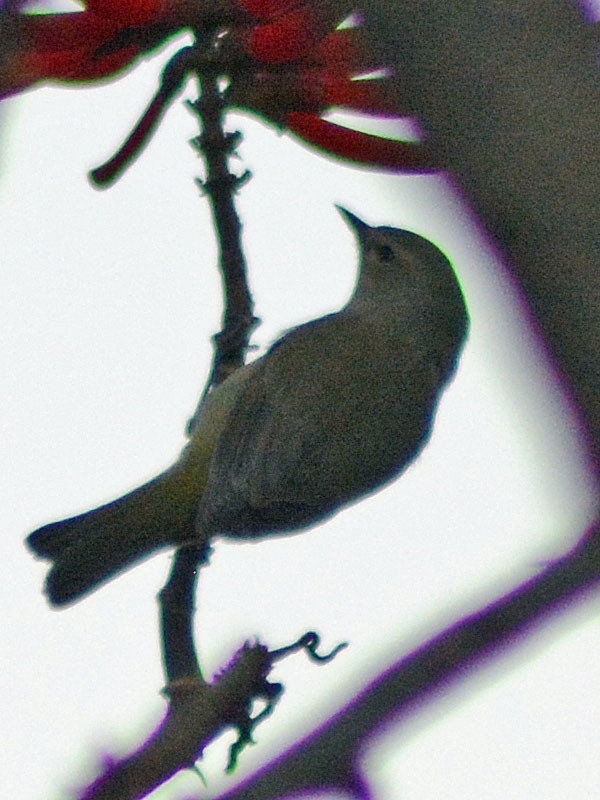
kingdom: Animalia
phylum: Chordata
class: Aves
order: Passeriformes
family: Parulidae
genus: Leiothlypis
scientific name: Leiothlypis celata
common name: Orange-crowned warbler
